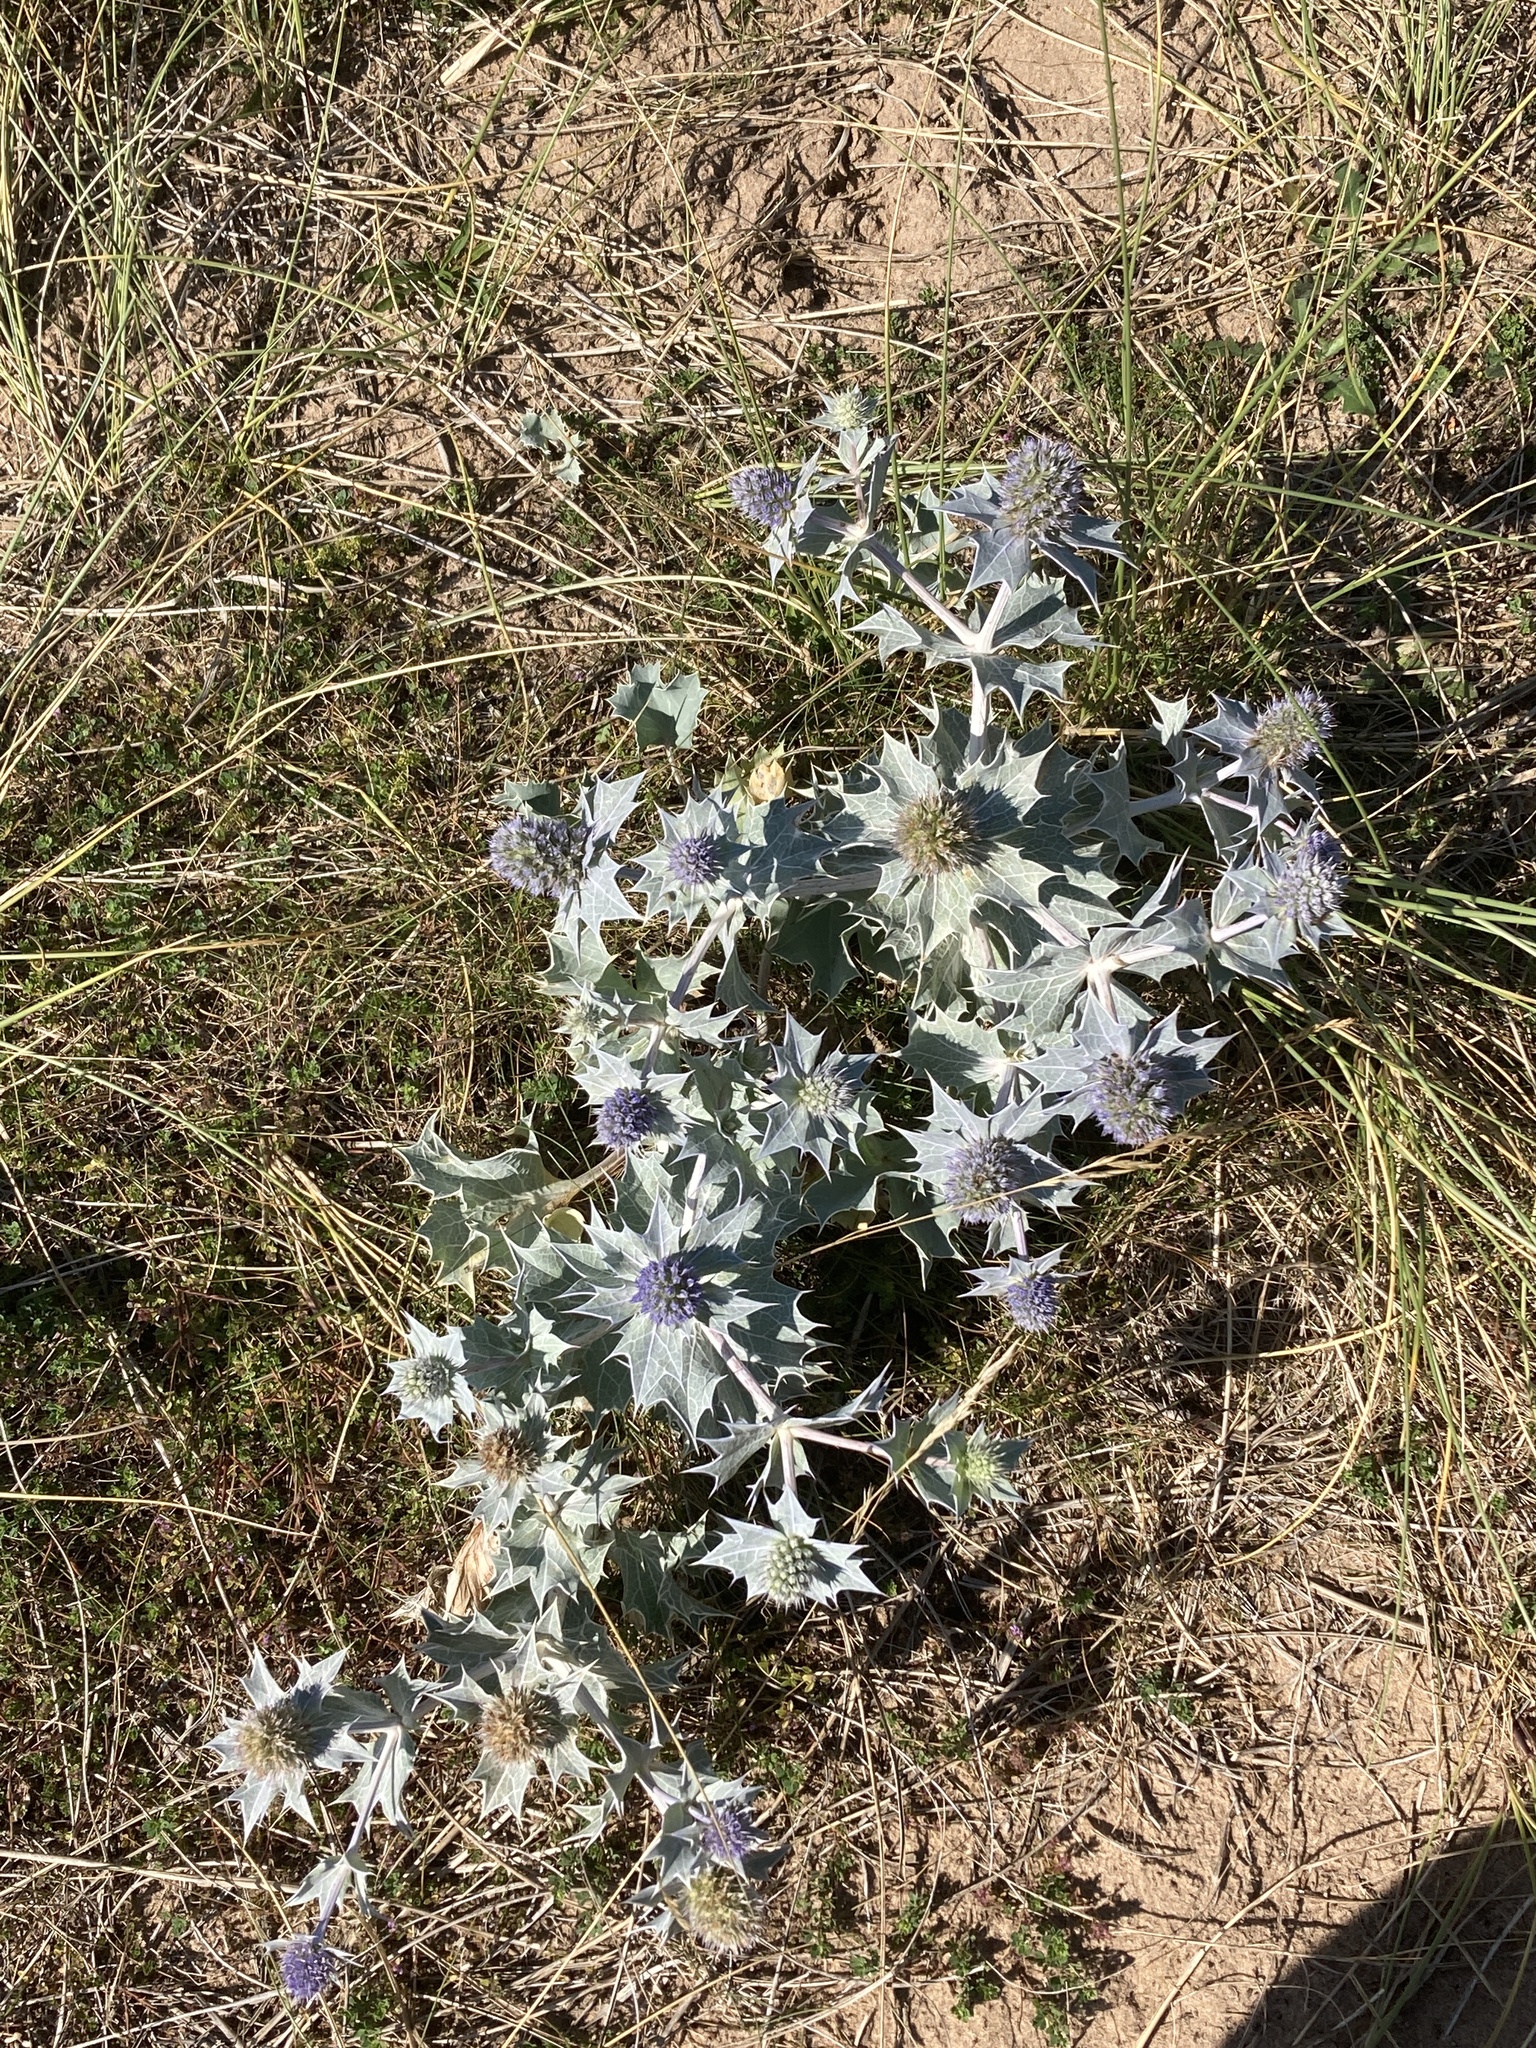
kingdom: Plantae
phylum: Tracheophyta
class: Magnoliopsida
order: Apiales
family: Apiaceae
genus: Eryngium
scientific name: Eryngium maritimum
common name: Sea-holly
